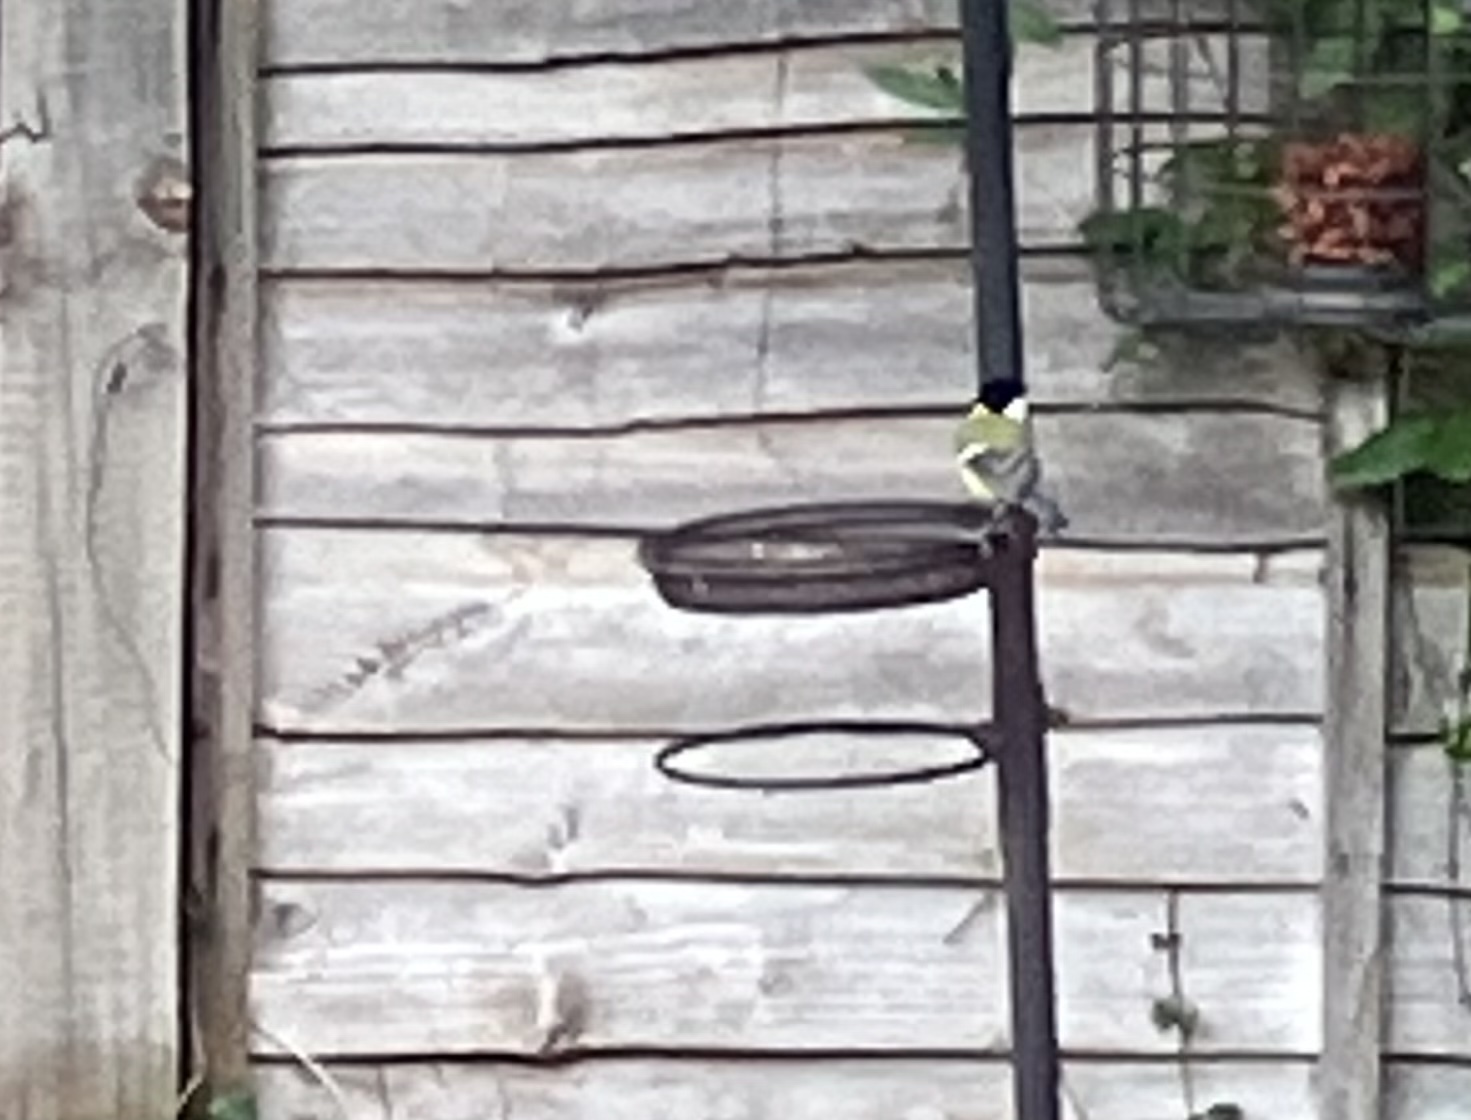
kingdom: Animalia
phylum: Chordata
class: Aves
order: Passeriformes
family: Paridae
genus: Parus
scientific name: Parus major
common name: Great tit
